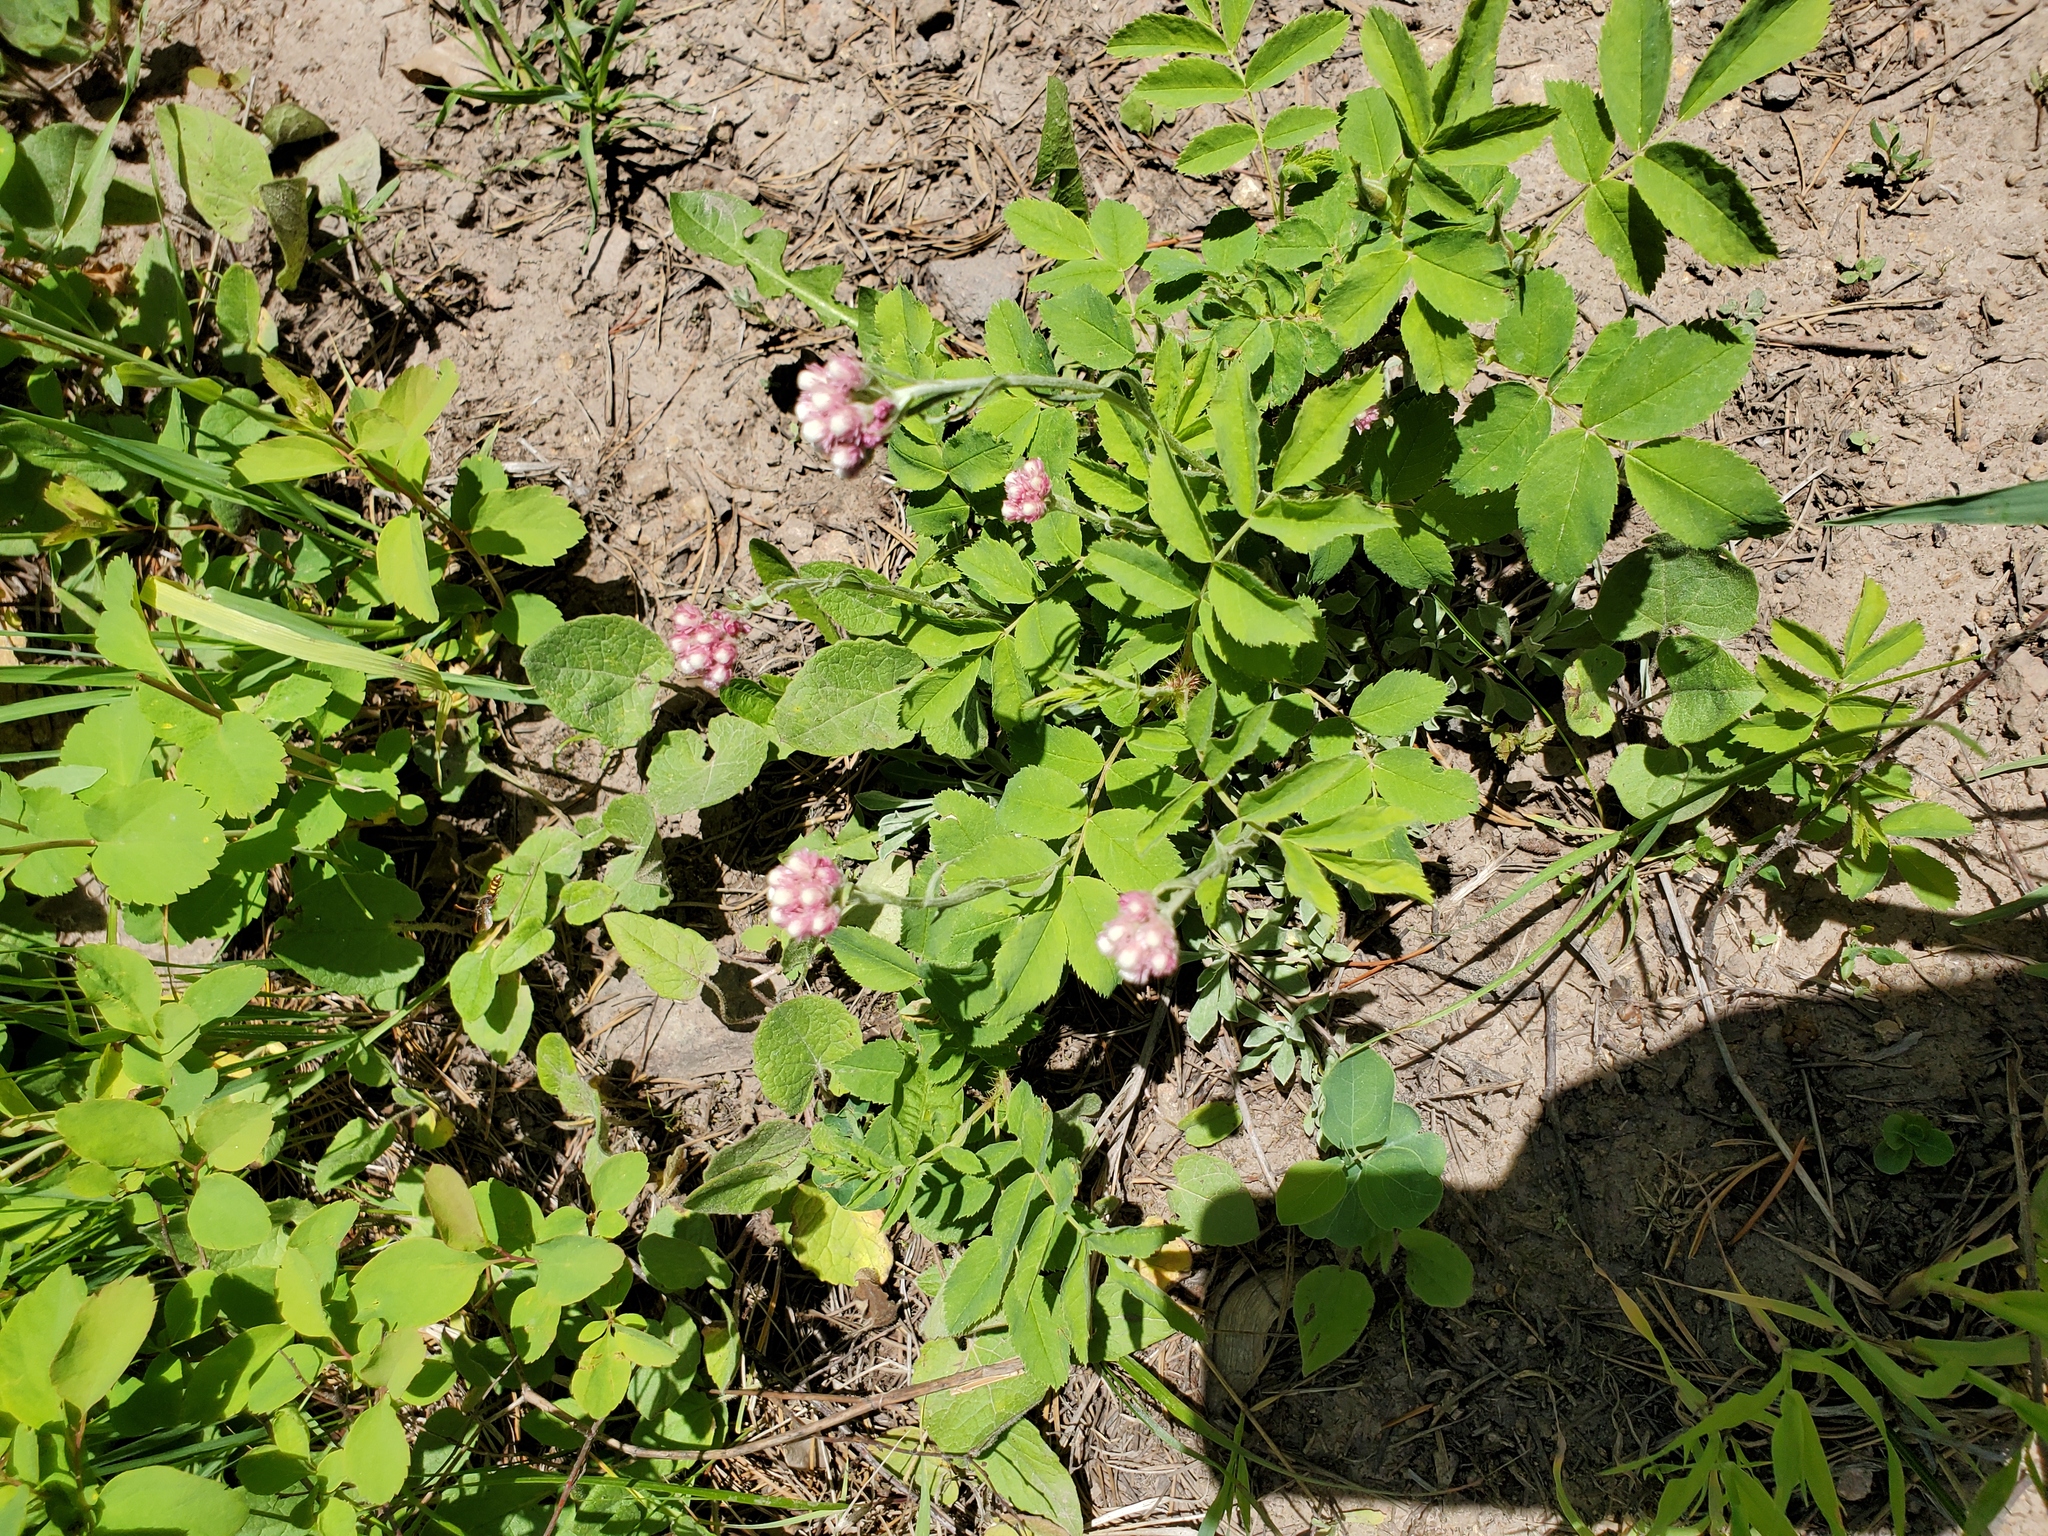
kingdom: Plantae
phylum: Tracheophyta
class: Magnoliopsida
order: Asterales
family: Asteraceae
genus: Antennaria
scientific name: Antennaria rosea
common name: Rosy pussytoes
